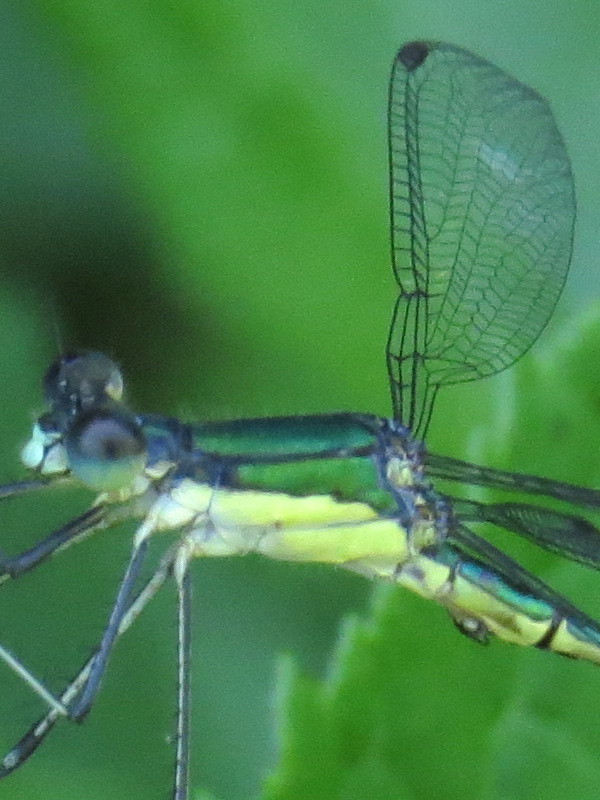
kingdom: Animalia
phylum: Arthropoda
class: Insecta
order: Odonata
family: Lestidae
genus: Lestes
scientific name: Lestes inaequalis
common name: Elegant spreadwing
